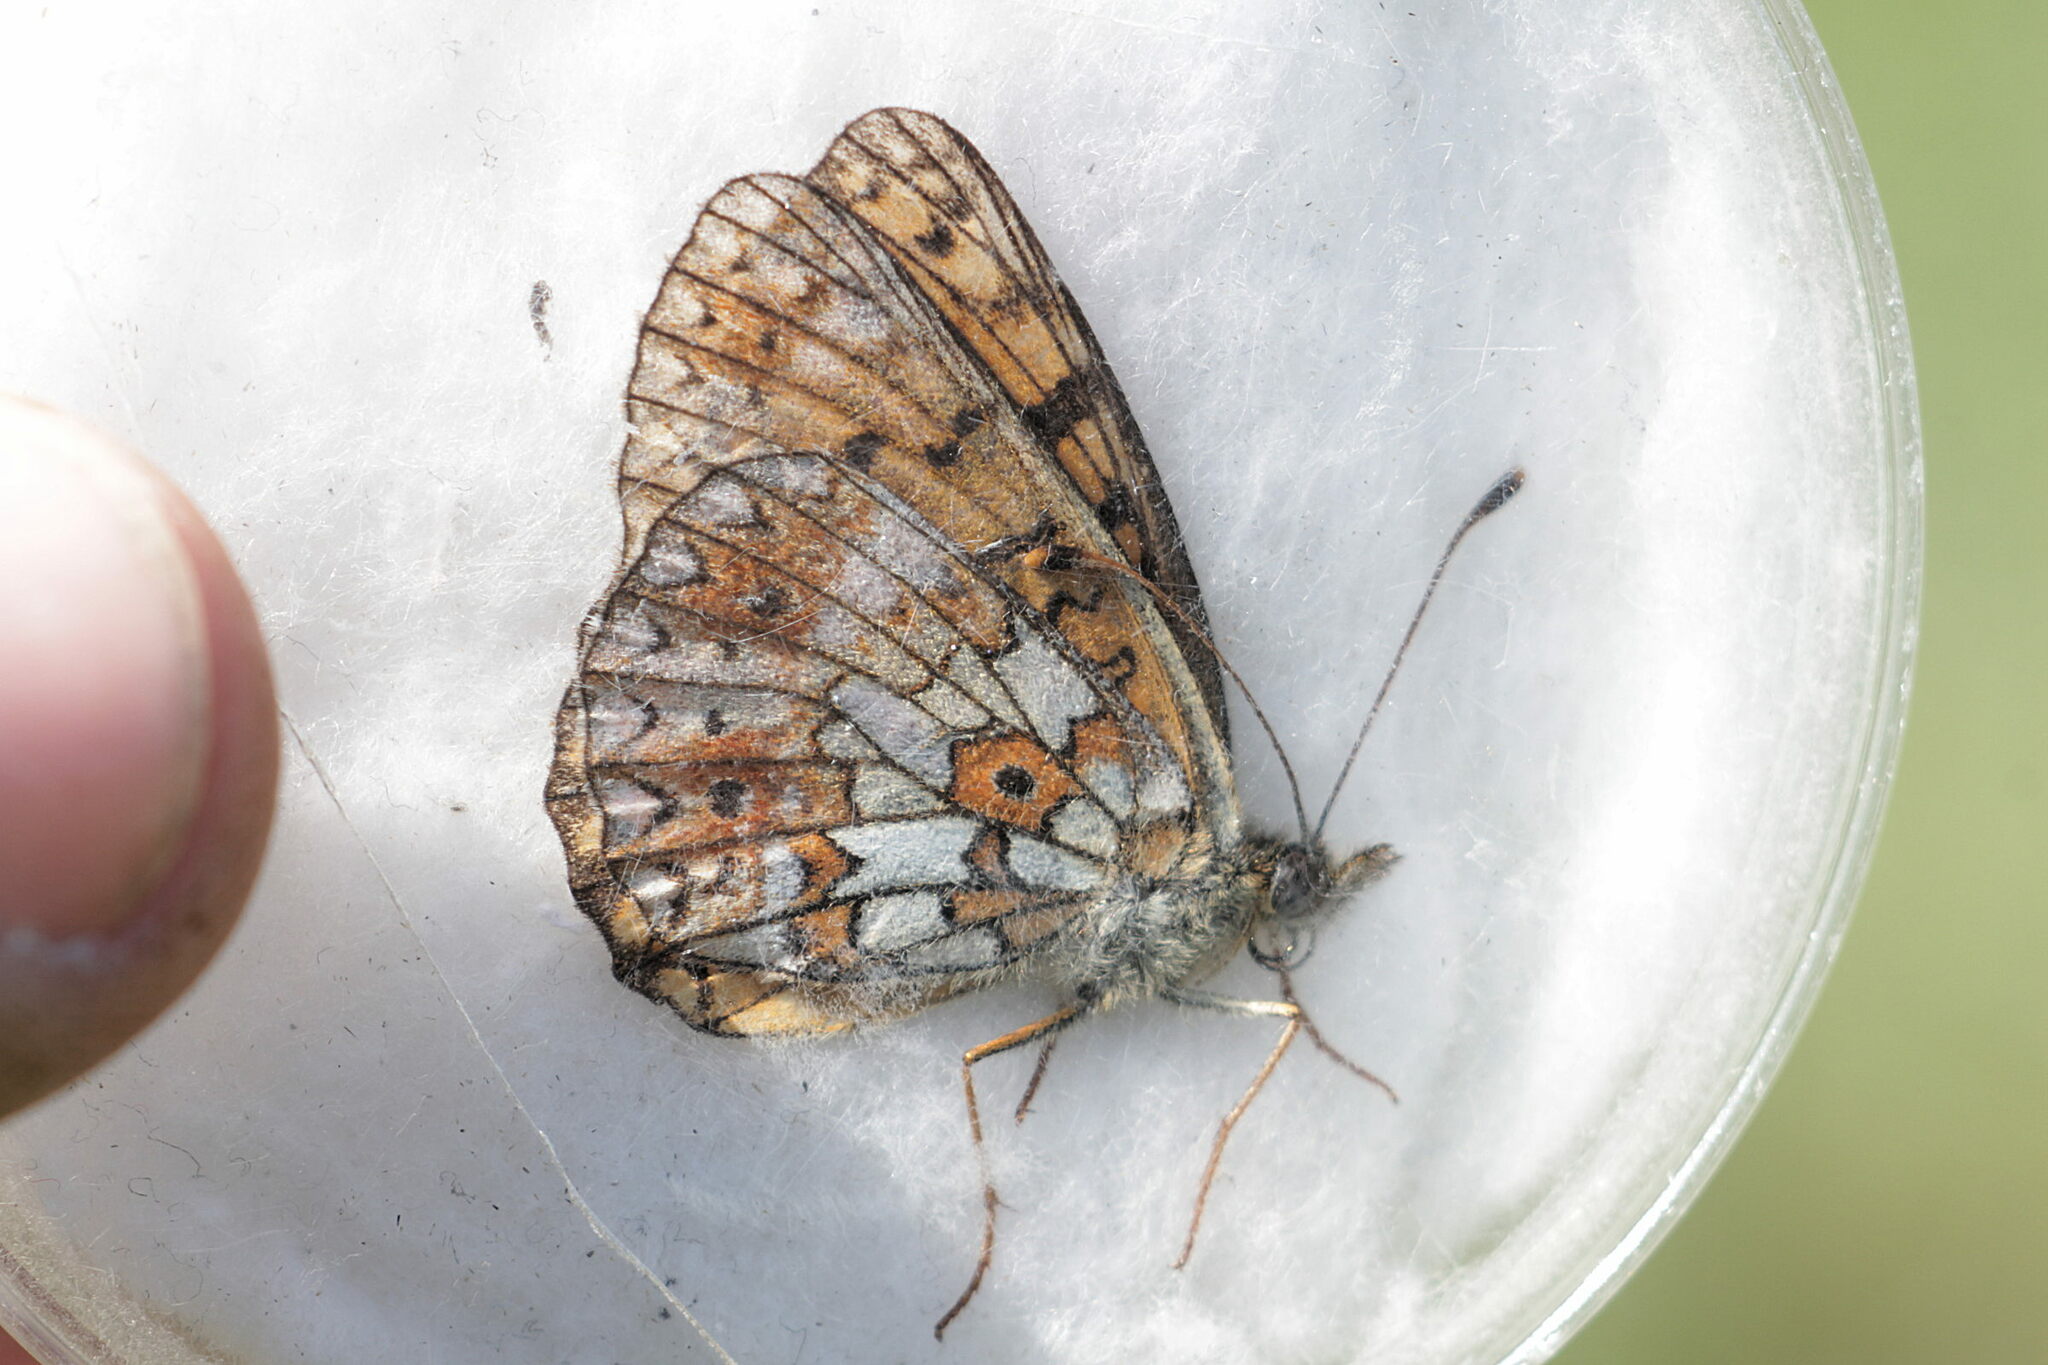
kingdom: Animalia
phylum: Arthropoda
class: Insecta
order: Lepidoptera
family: Nymphalidae
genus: Boloria
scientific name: Boloria selene
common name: Small pearl-bordered fritillary
